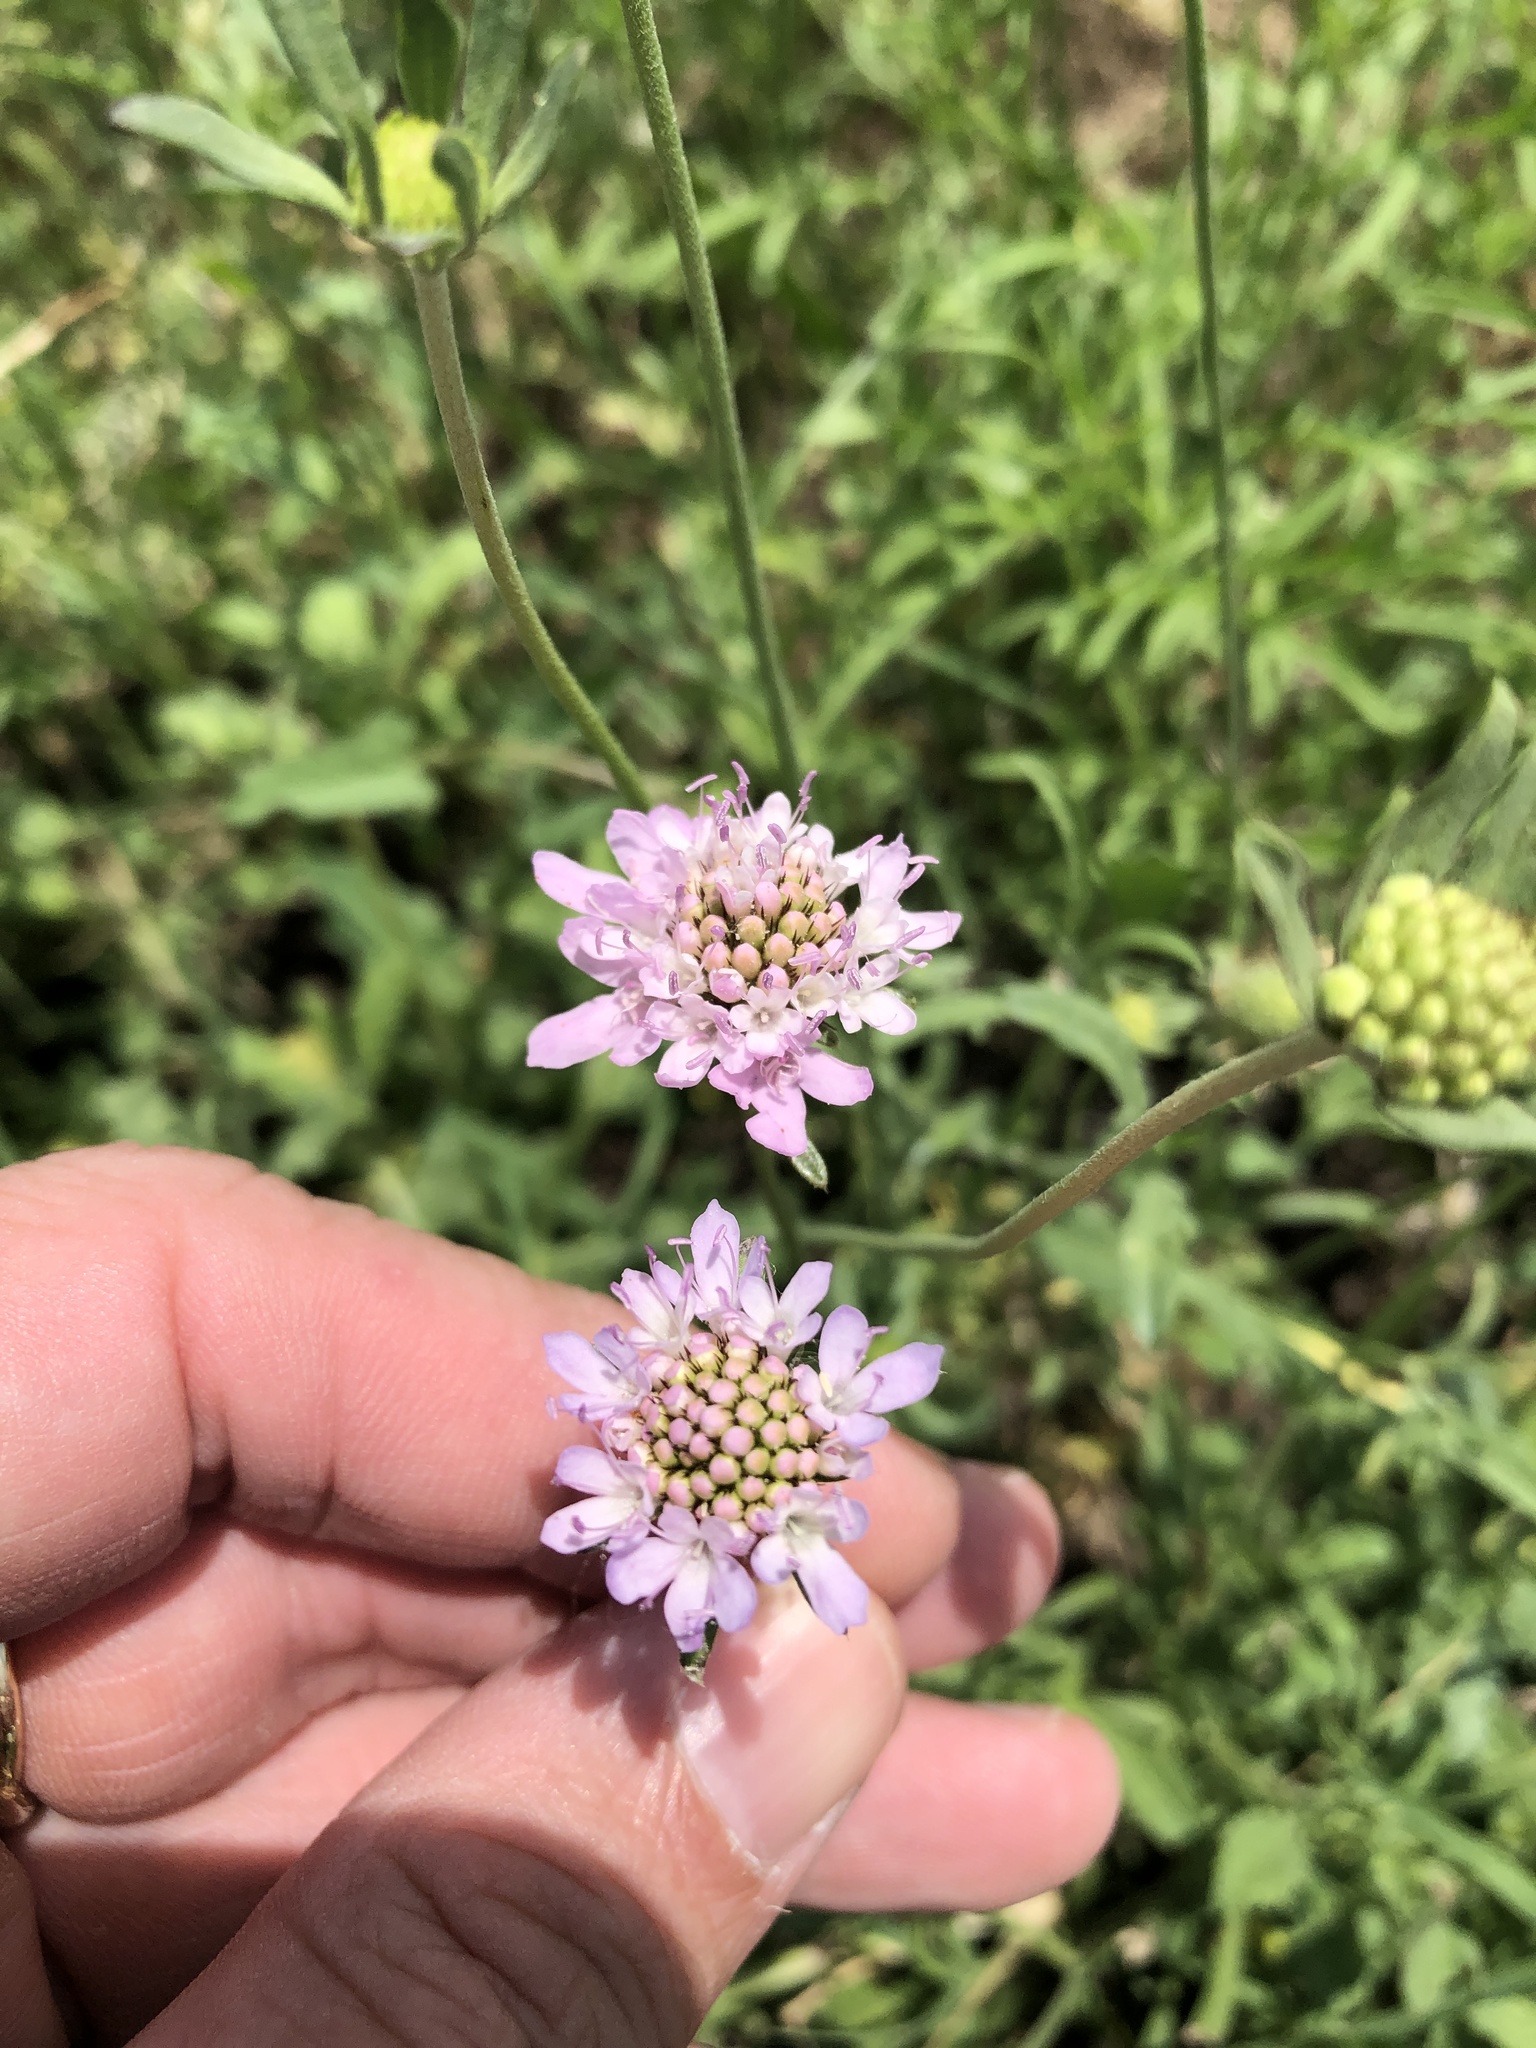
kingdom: Plantae
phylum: Tracheophyta
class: Magnoliopsida
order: Dipsacales
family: Caprifoliaceae
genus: Sixalix
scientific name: Sixalix atropurpurea
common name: Sweet scabious
